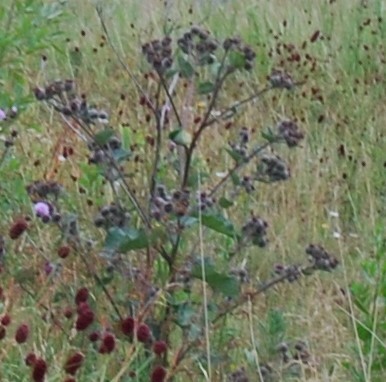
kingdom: Plantae
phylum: Tracheophyta
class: Magnoliopsida
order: Asterales
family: Asteraceae
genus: Arctium
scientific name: Arctium tomentosum
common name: Woolly burdock
